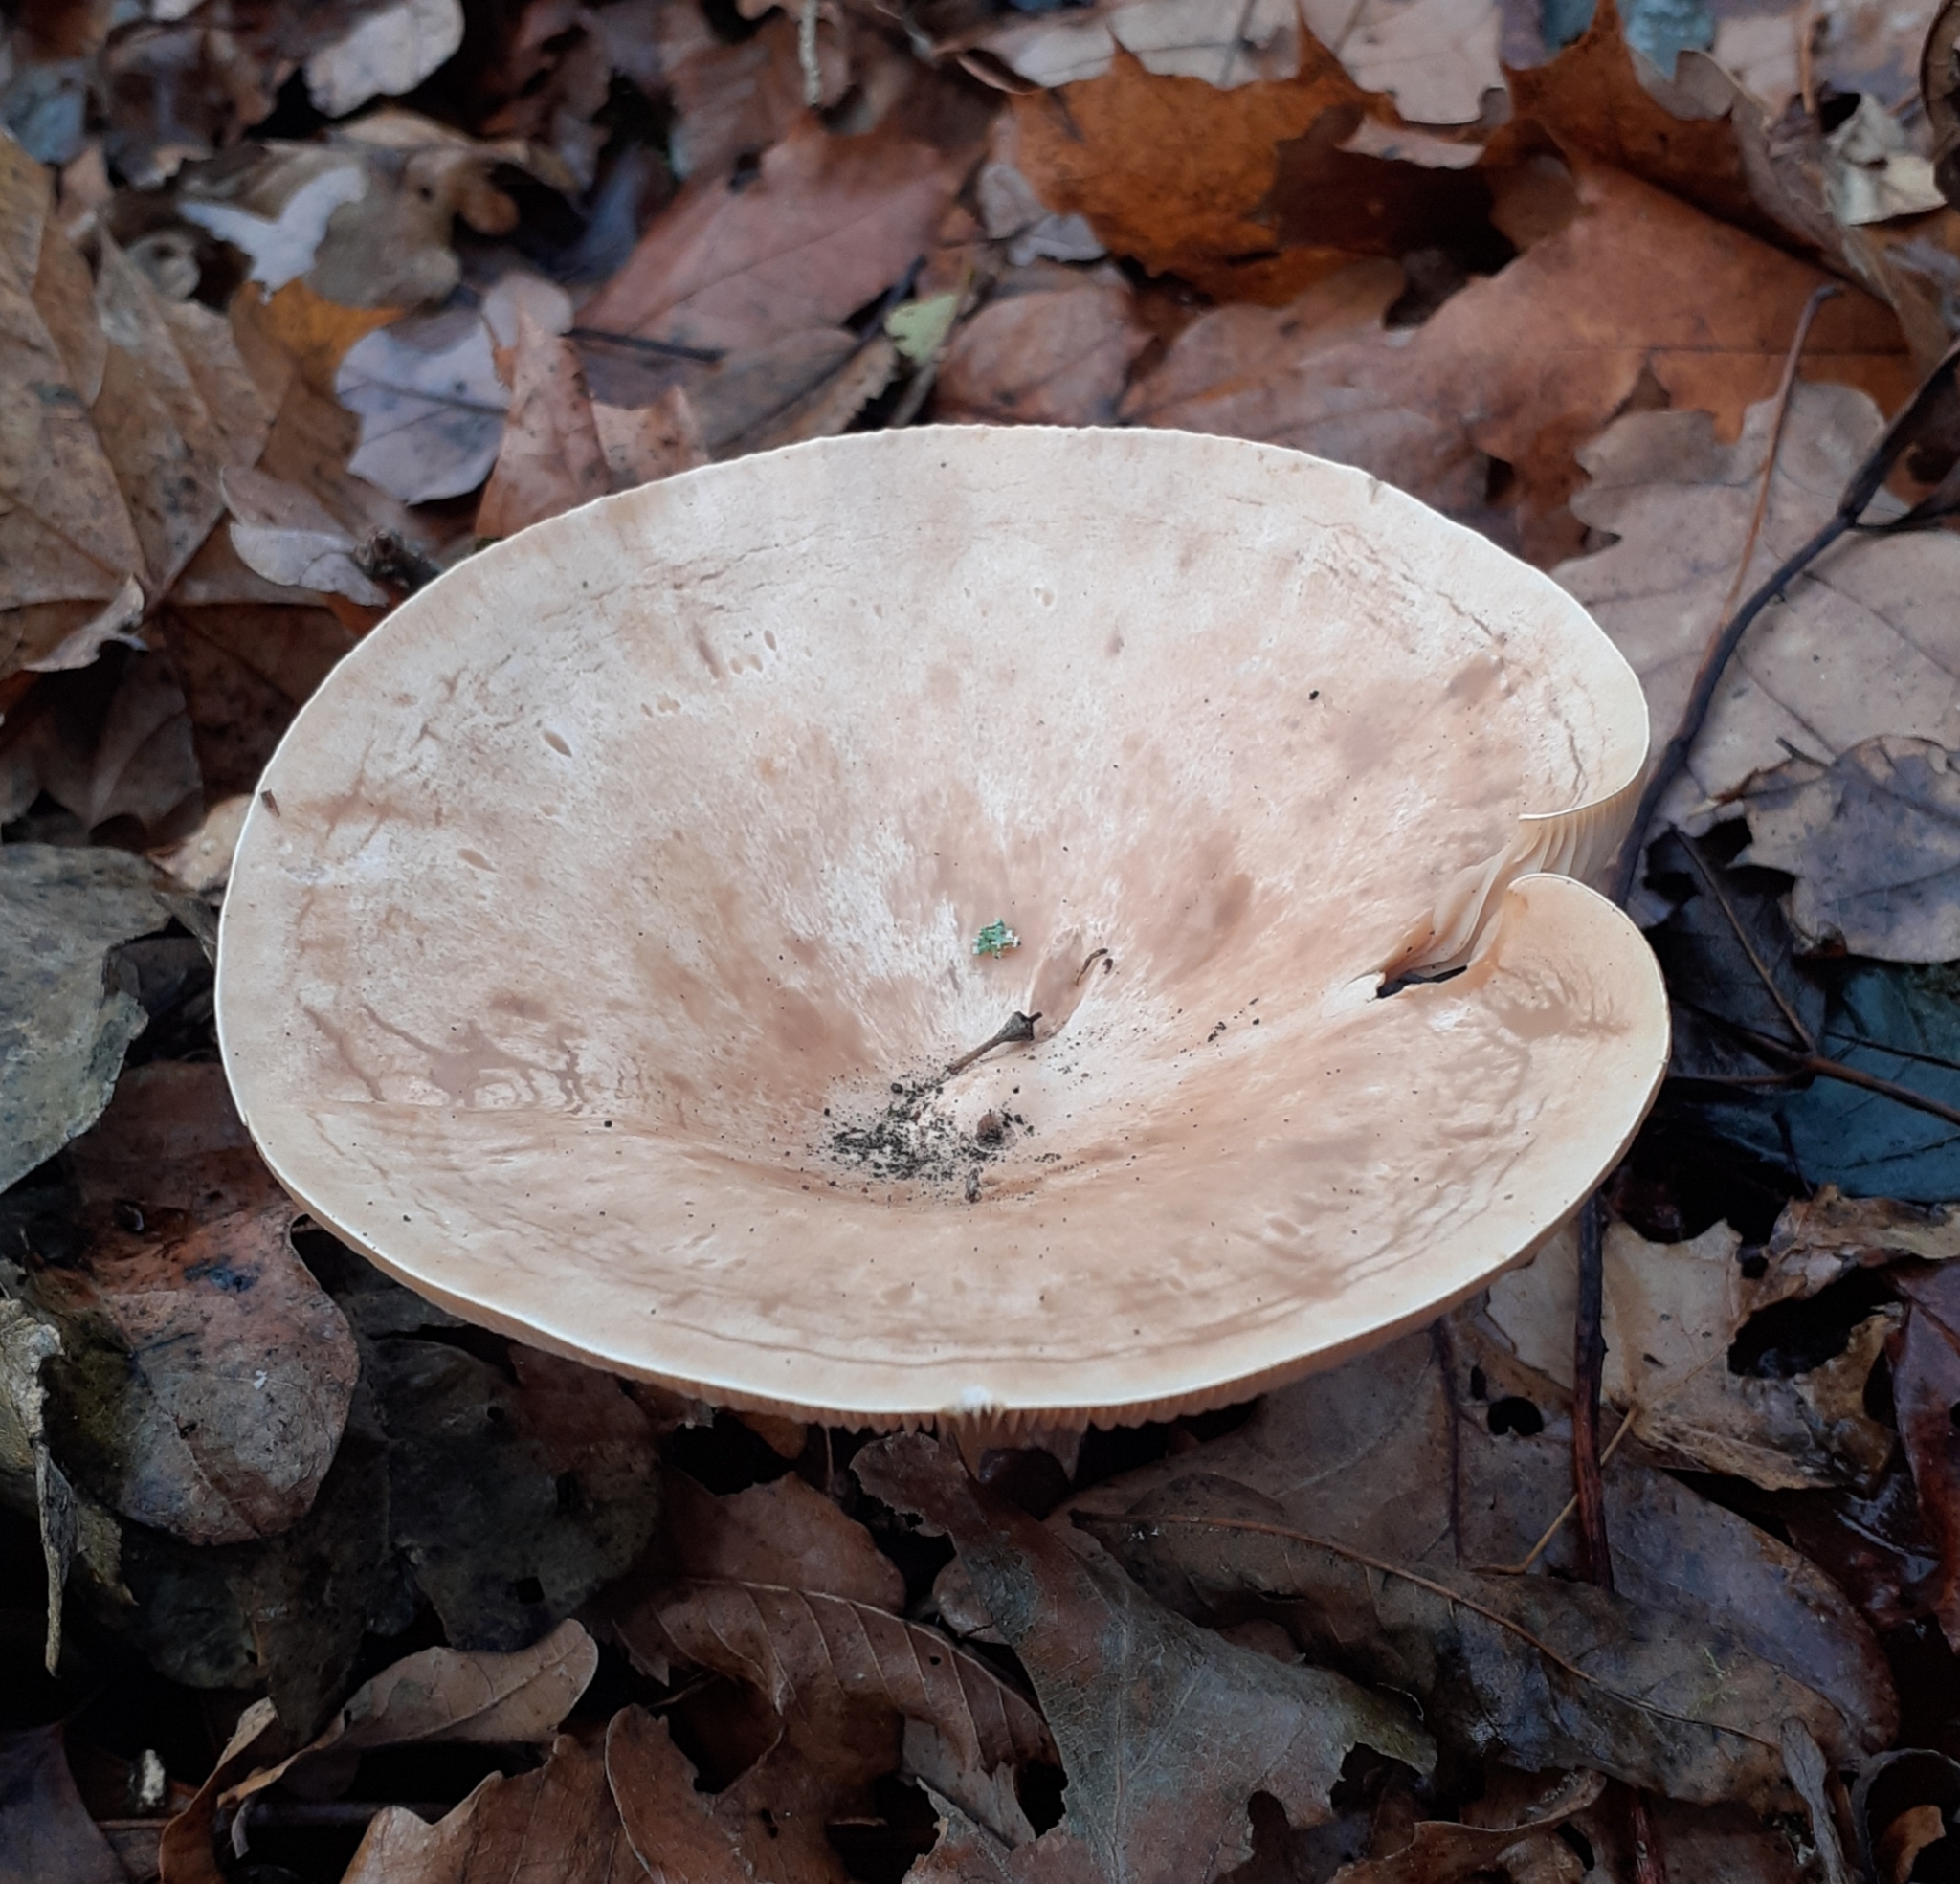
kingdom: Fungi
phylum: Basidiomycota
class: Agaricomycetes
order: Agaricales
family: Tricholomataceae
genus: Infundibulicybe
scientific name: Infundibulicybe geotropa
